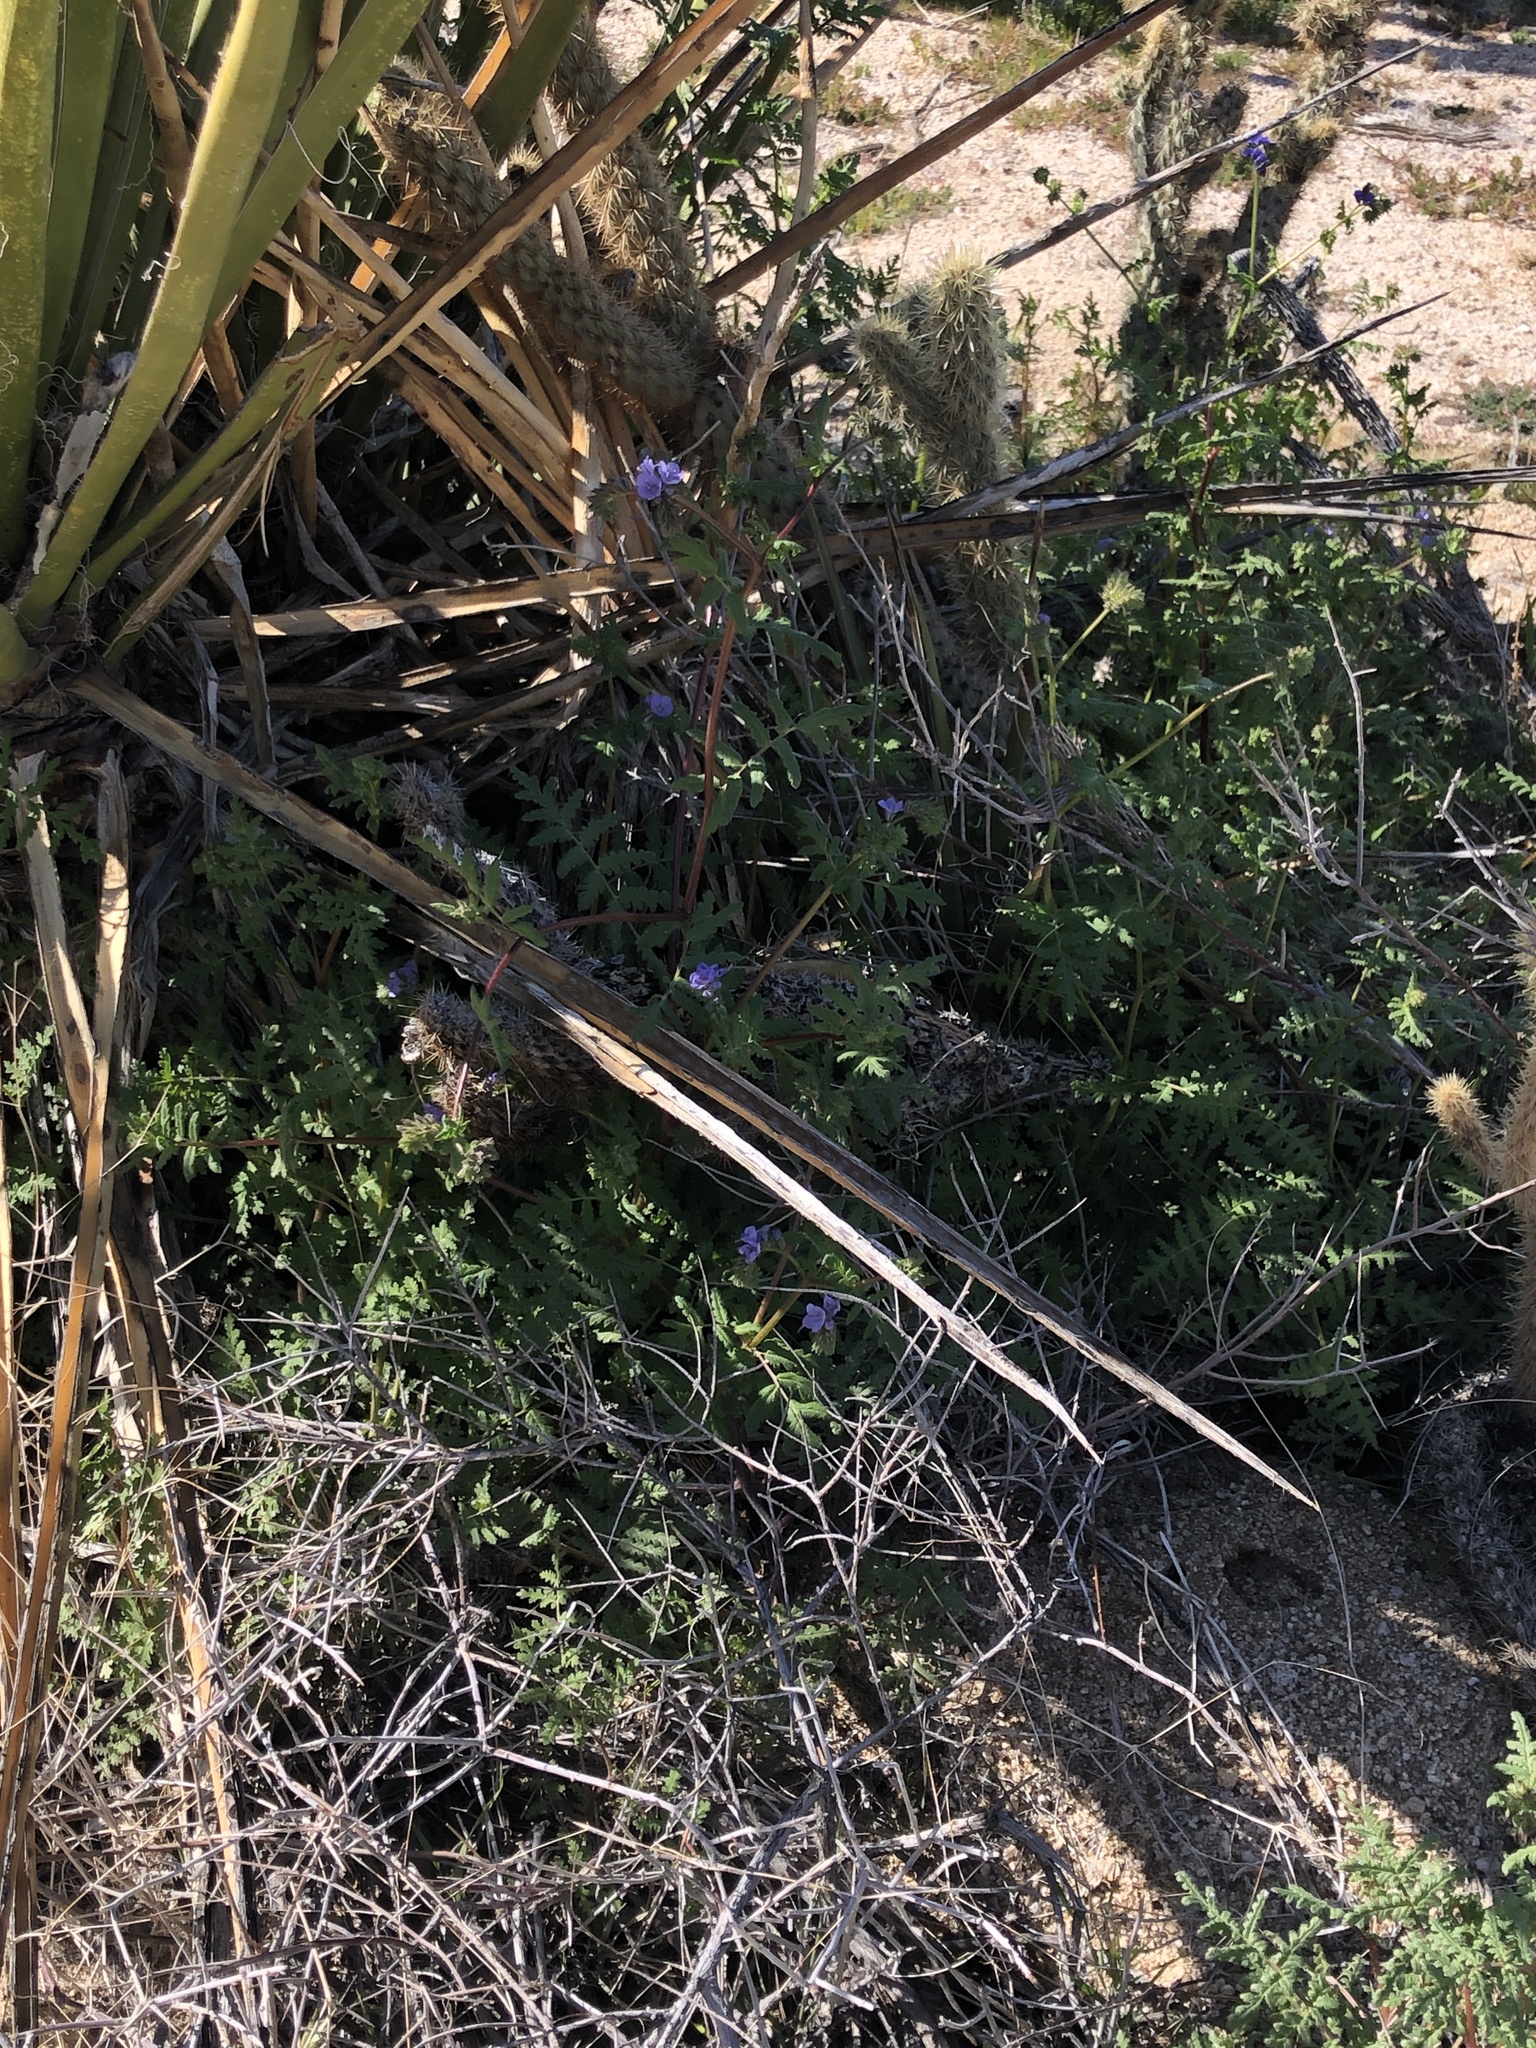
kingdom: Plantae
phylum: Tracheophyta
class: Magnoliopsida
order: Boraginales
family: Hydrophyllaceae
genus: Phacelia
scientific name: Phacelia distans
